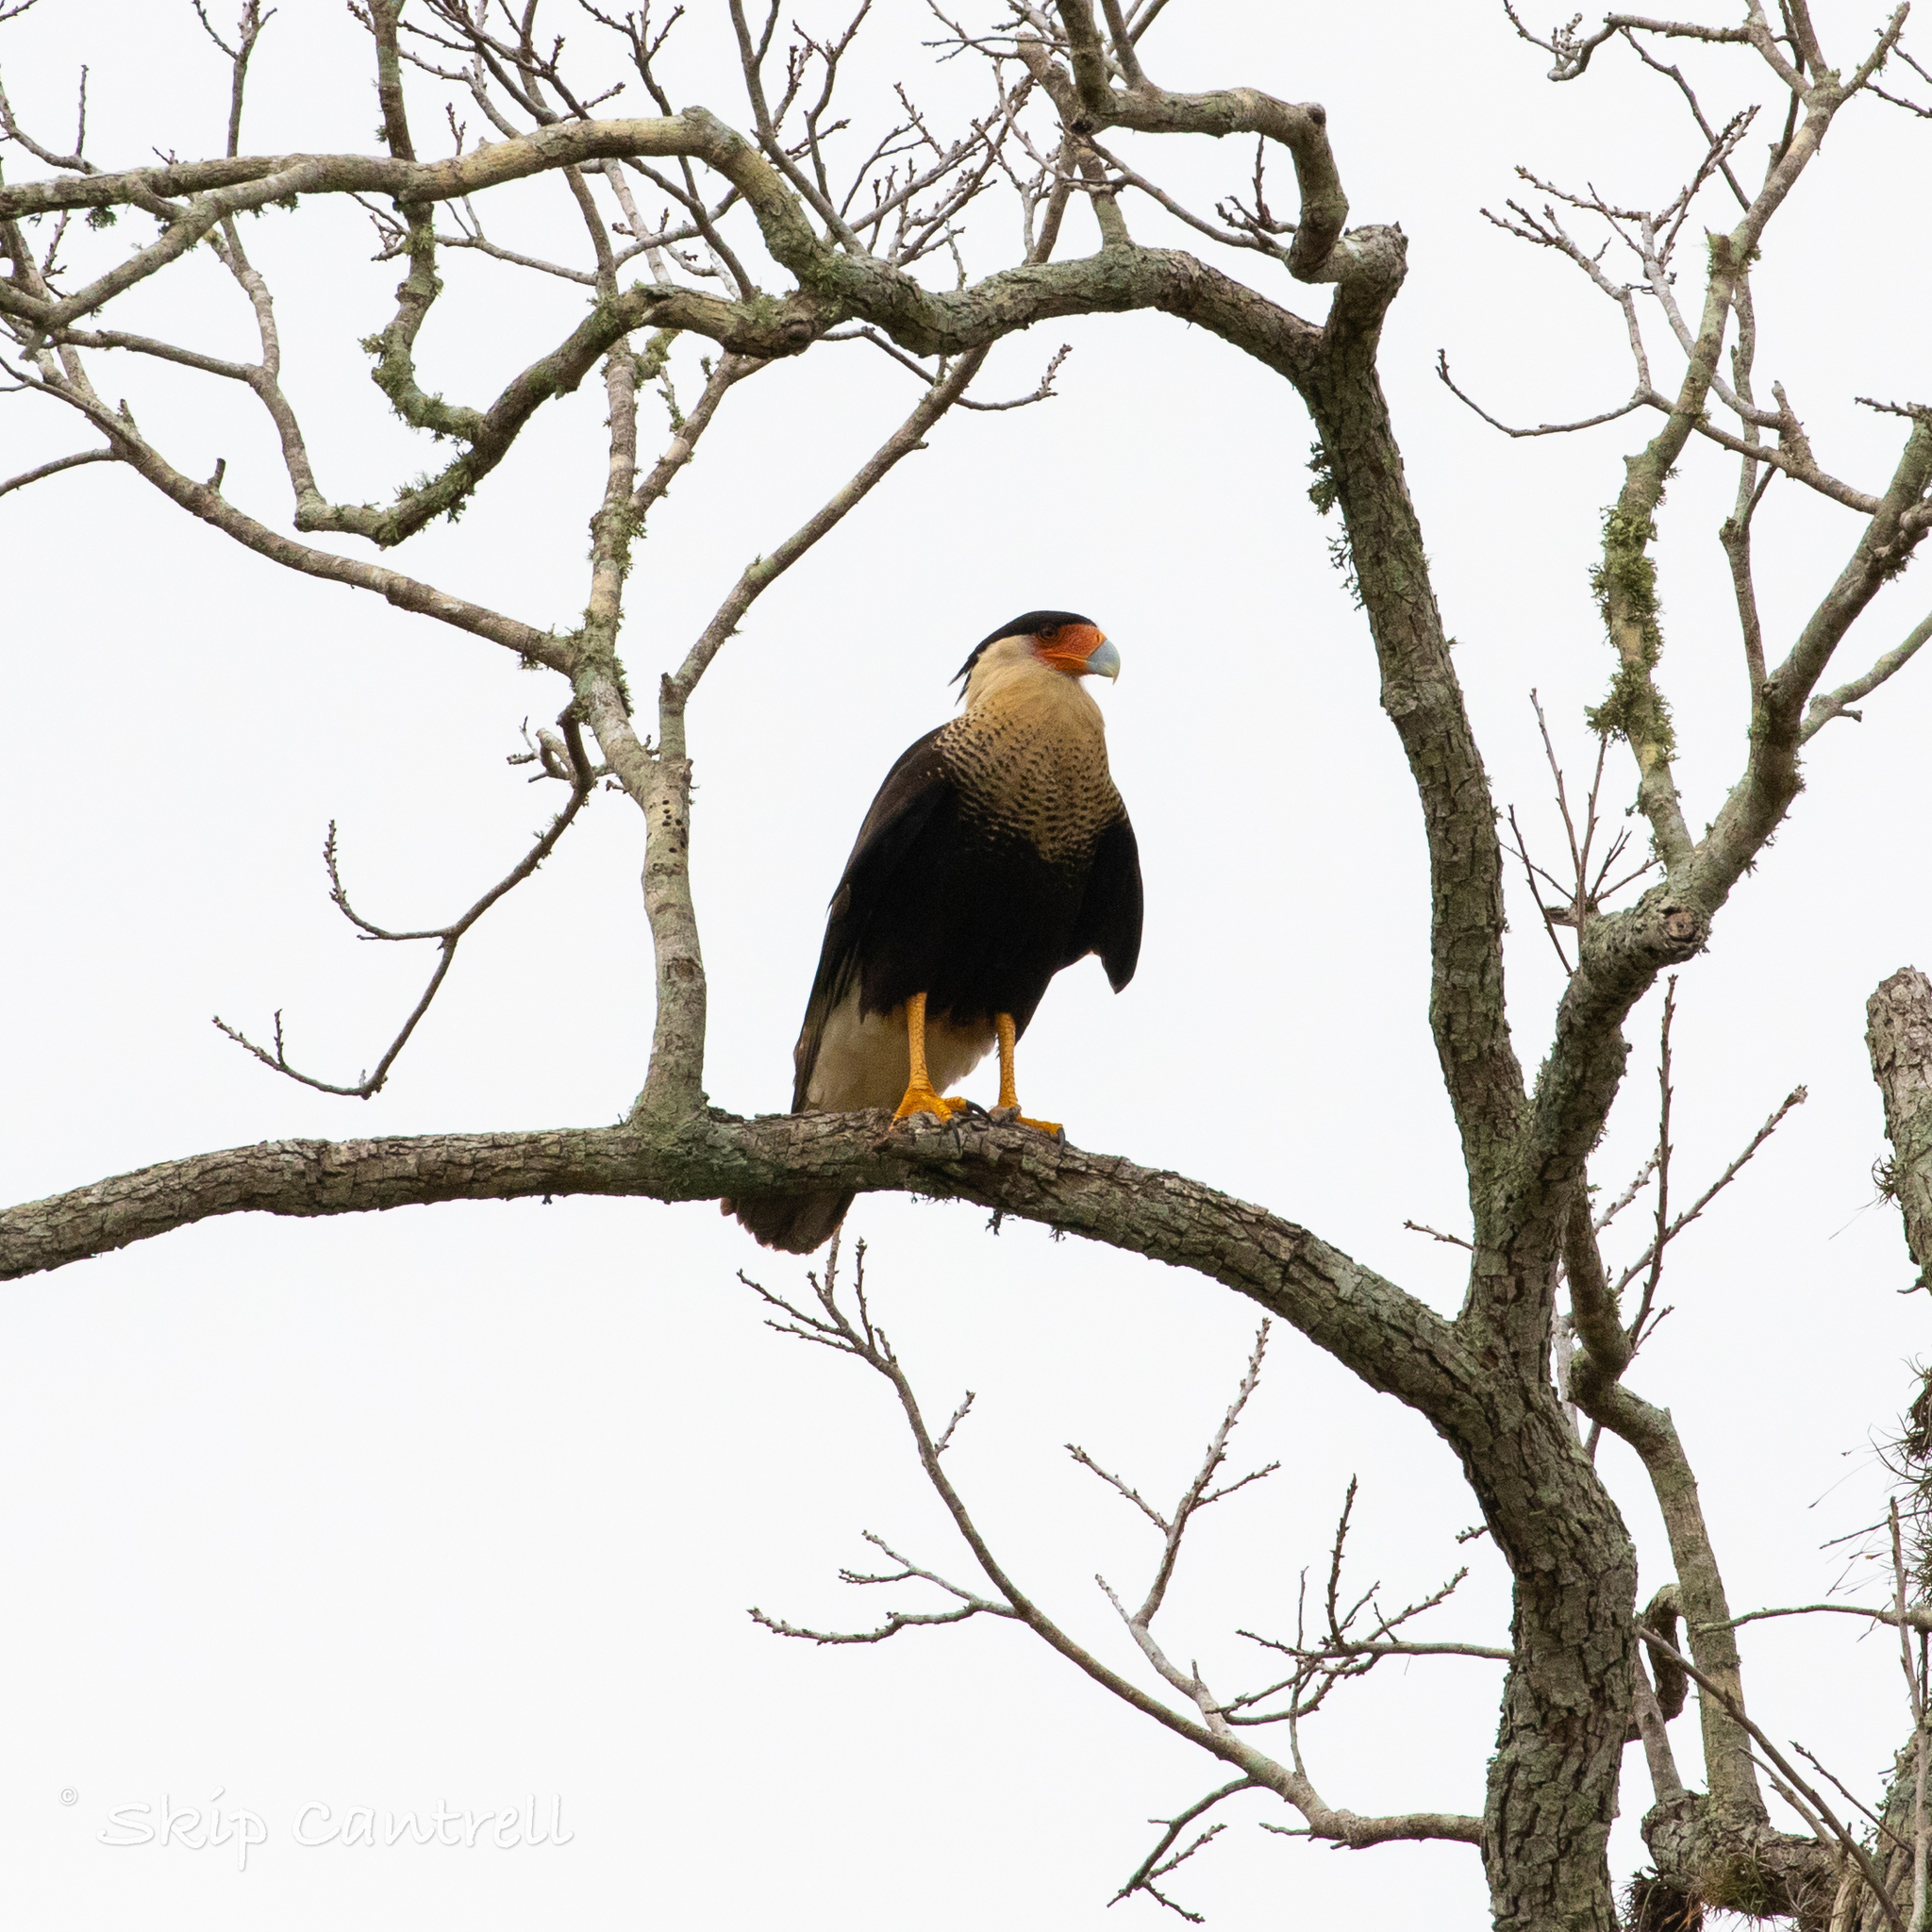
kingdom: Animalia
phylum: Chordata
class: Aves
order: Falconiformes
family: Falconidae
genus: Caracara
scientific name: Caracara plancus
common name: Southern caracara
